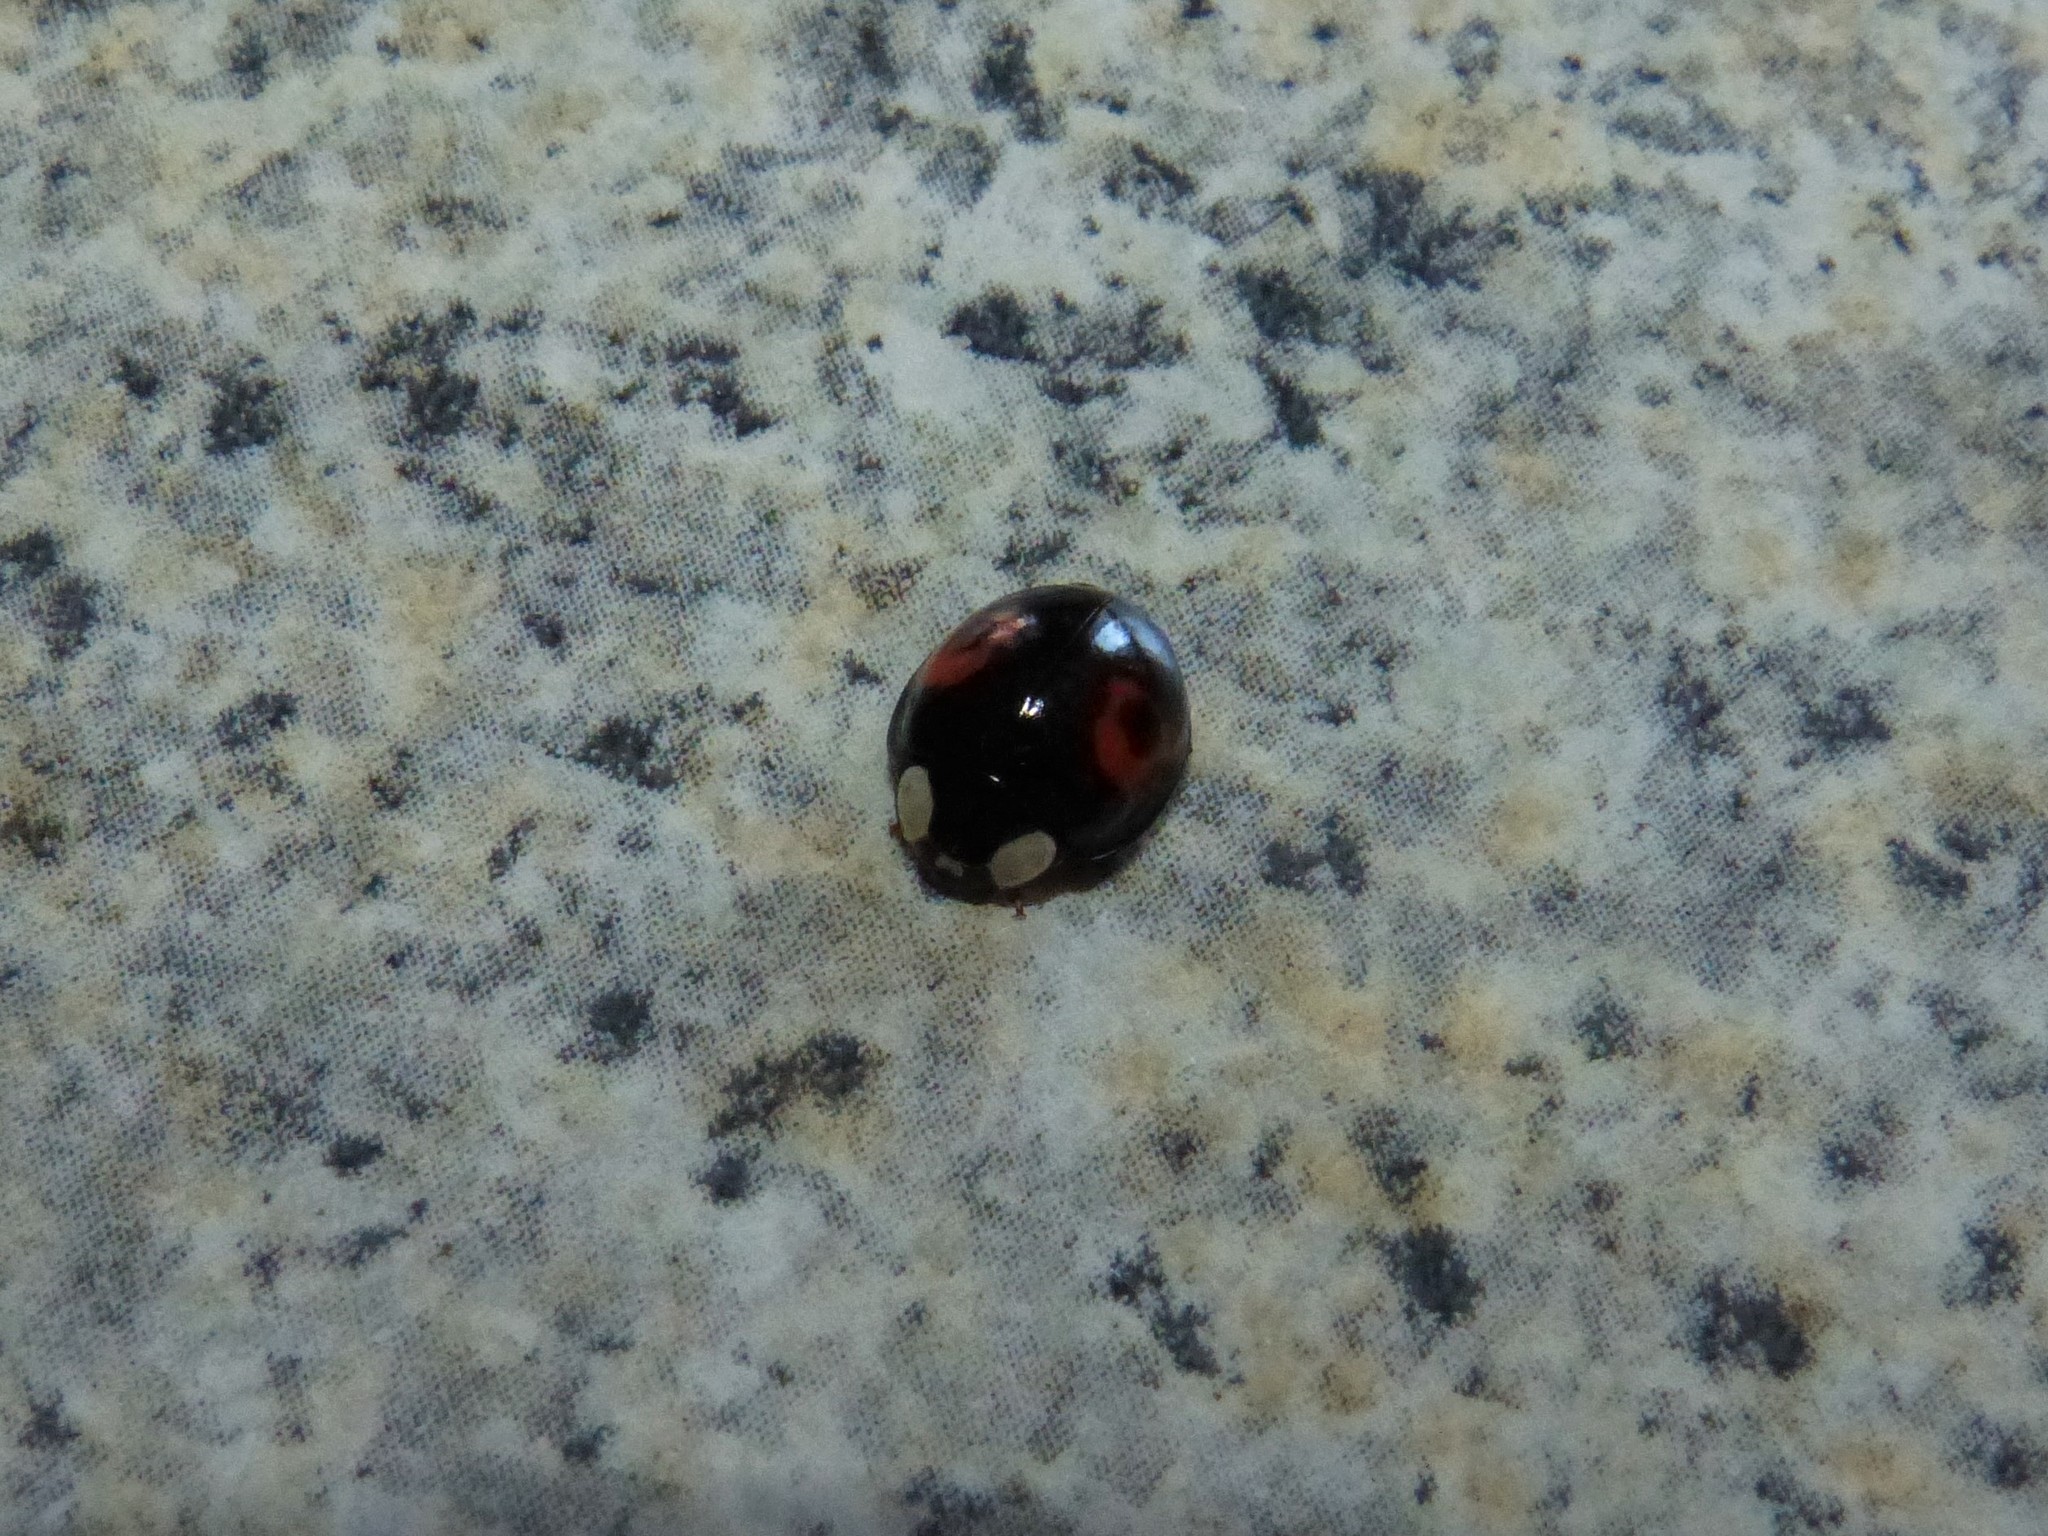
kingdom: Animalia
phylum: Arthropoda
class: Insecta
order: Coleoptera
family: Coccinellidae
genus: Harmonia
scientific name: Harmonia axyridis
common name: Harlequin ladybird
